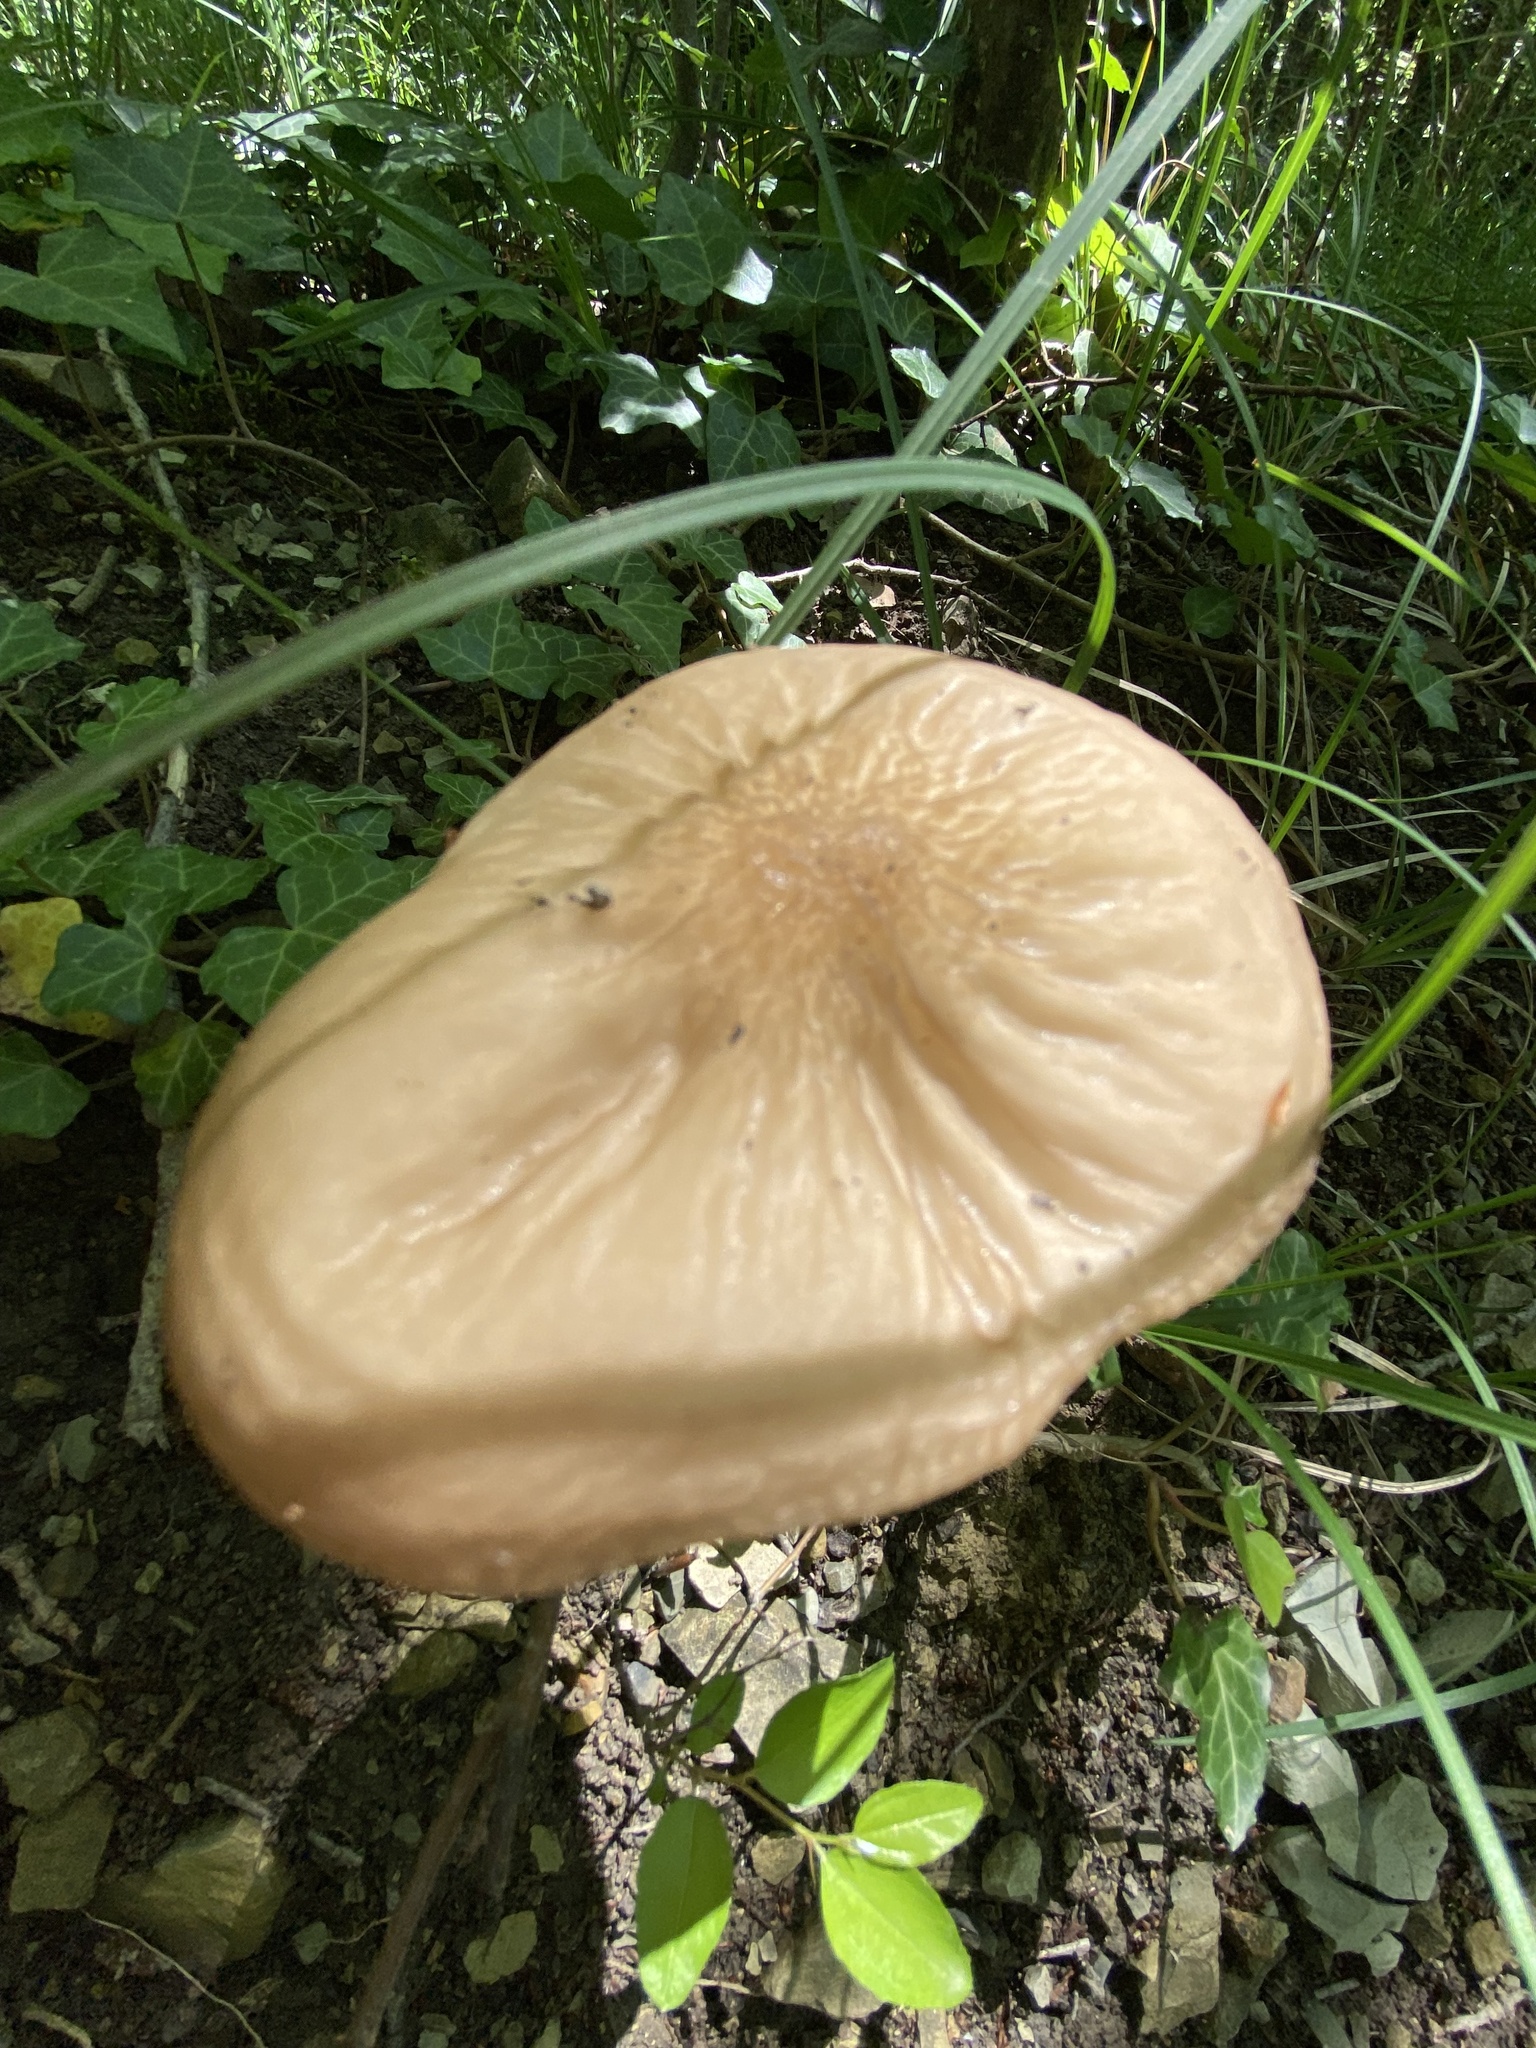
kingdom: Fungi
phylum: Basidiomycota
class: Agaricomycetes
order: Agaricales
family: Physalacriaceae
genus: Hymenopellis
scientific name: Hymenopellis radicata
